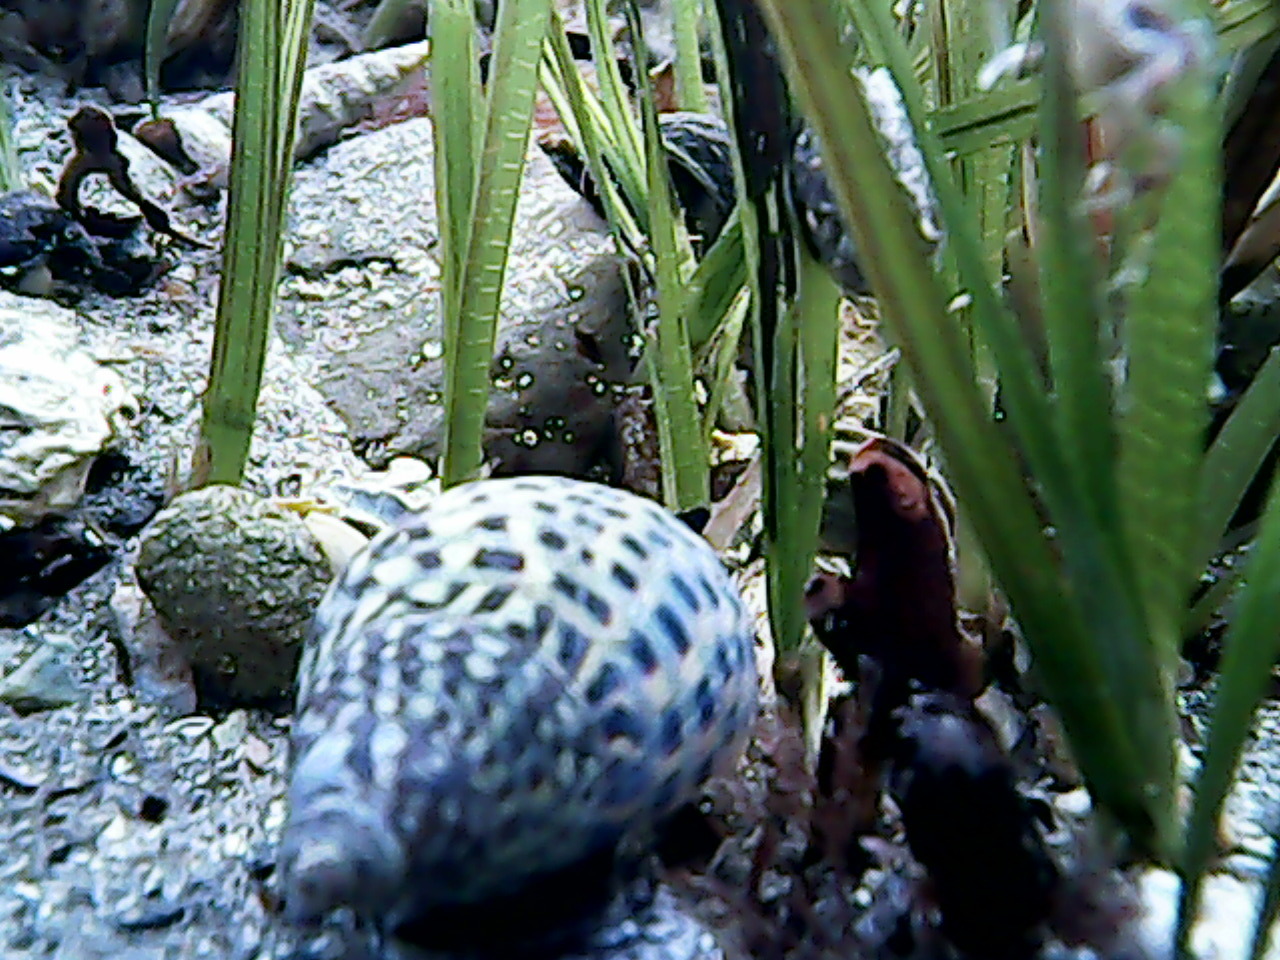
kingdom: Animalia
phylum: Mollusca
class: Gastropoda
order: Neogastropoda
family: Cominellidae
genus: Cominella
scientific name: Cominella maculosa
